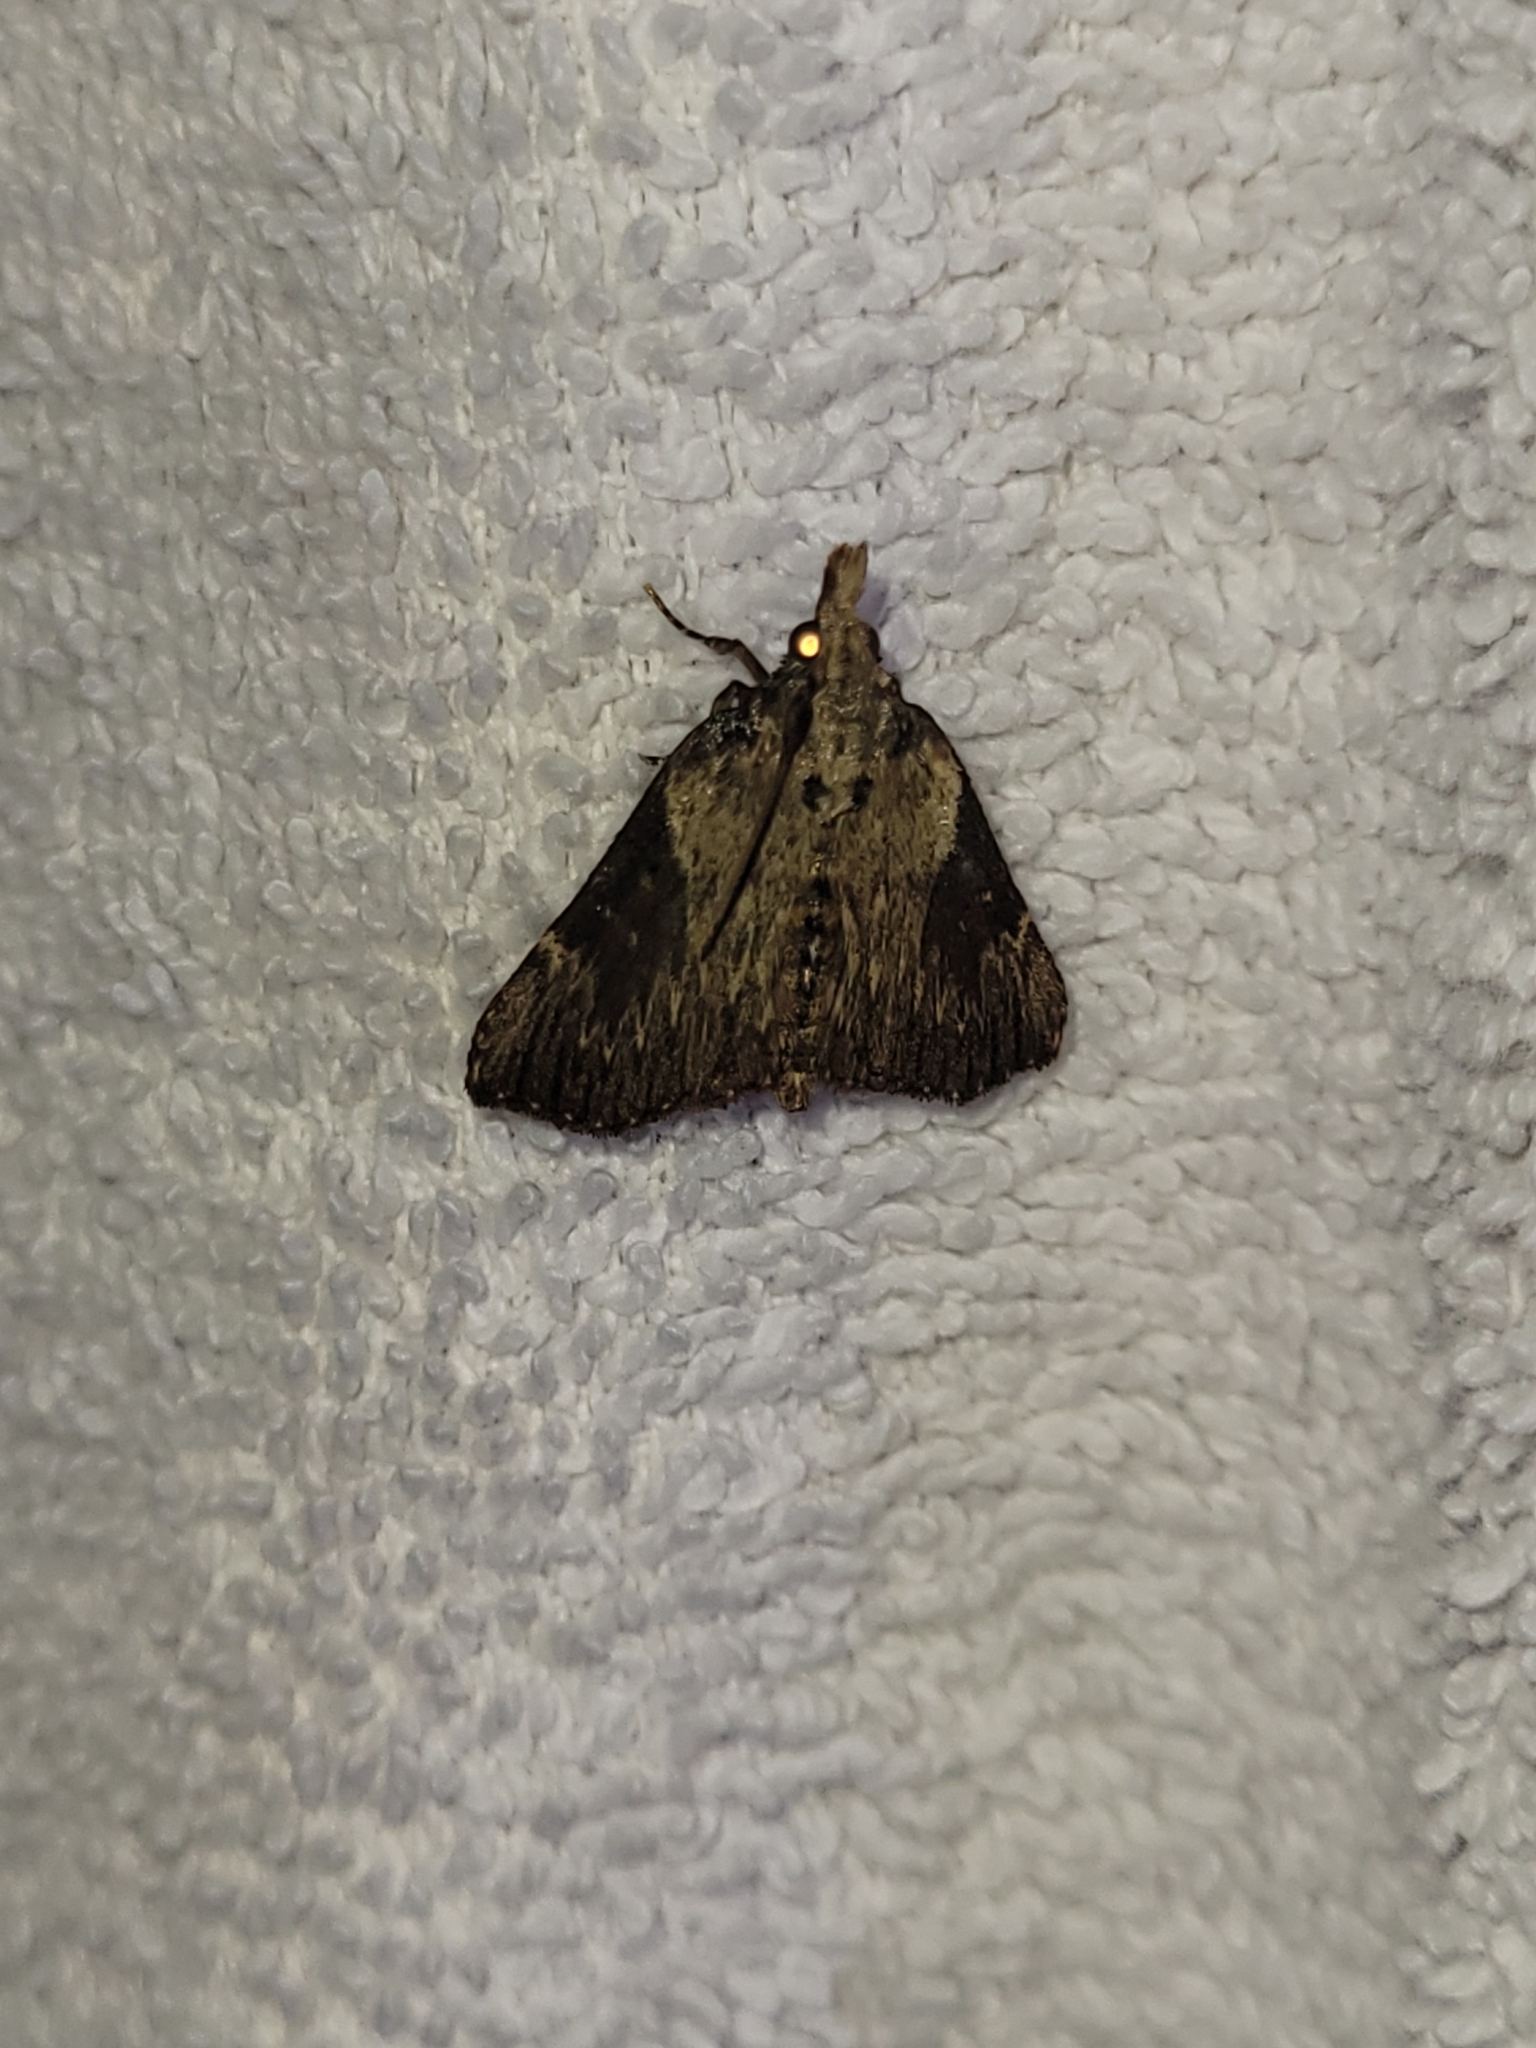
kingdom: Animalia
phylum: Arthropoda
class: Insecta
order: Lepidoptera
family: Pyralidae
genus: Omphalocera
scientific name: Omphalocera cariosa
